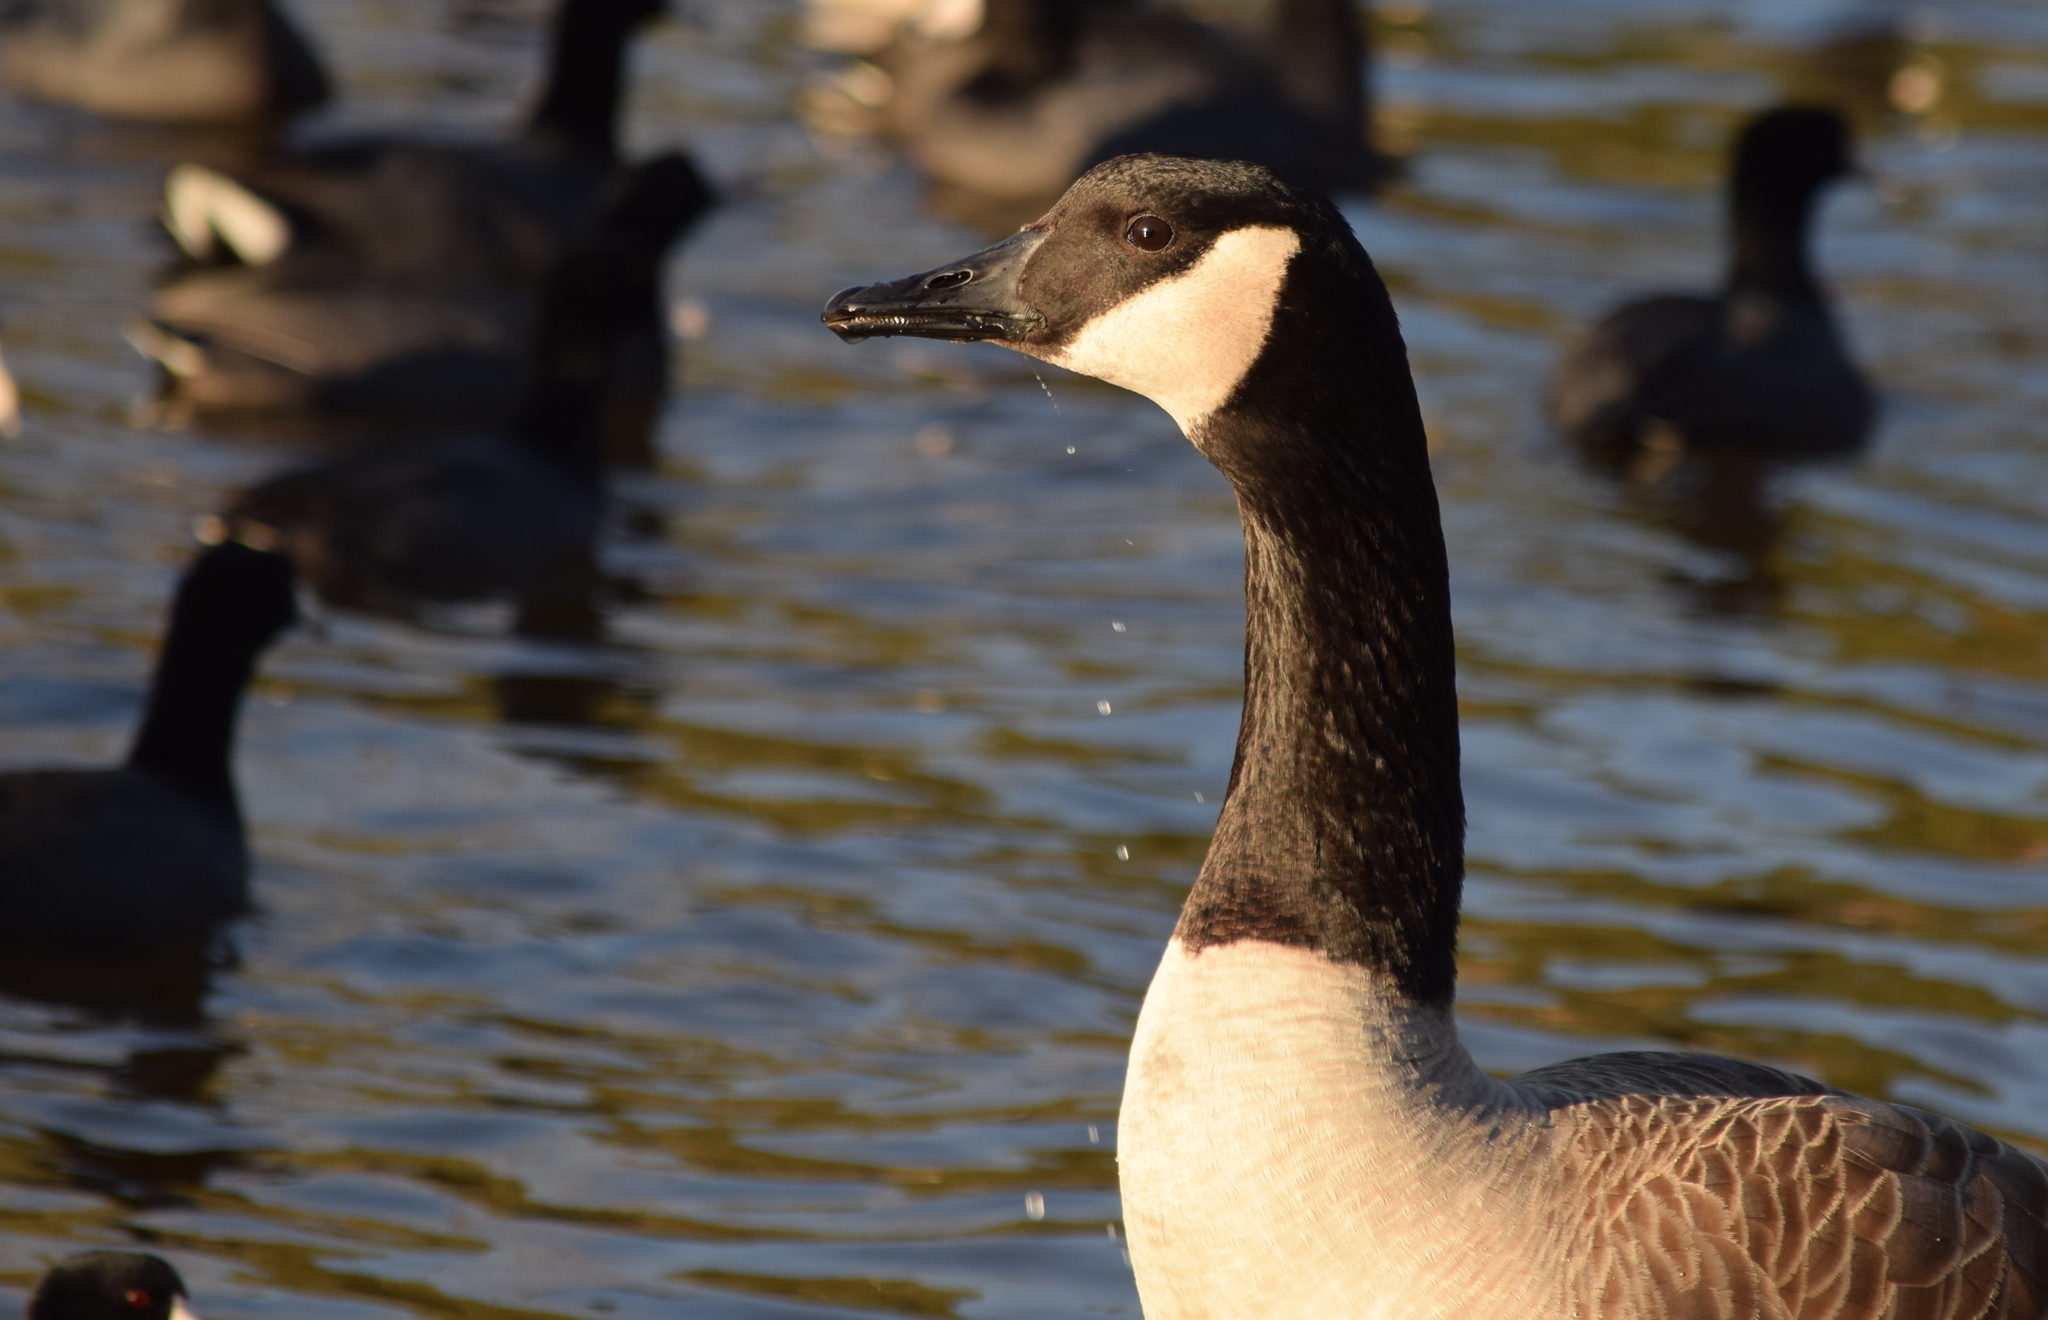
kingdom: Animalia
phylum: Chordata
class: Aves
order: Anseriformes
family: Anatidae
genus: Branta
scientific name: Branta canadensis
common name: Canada goose
